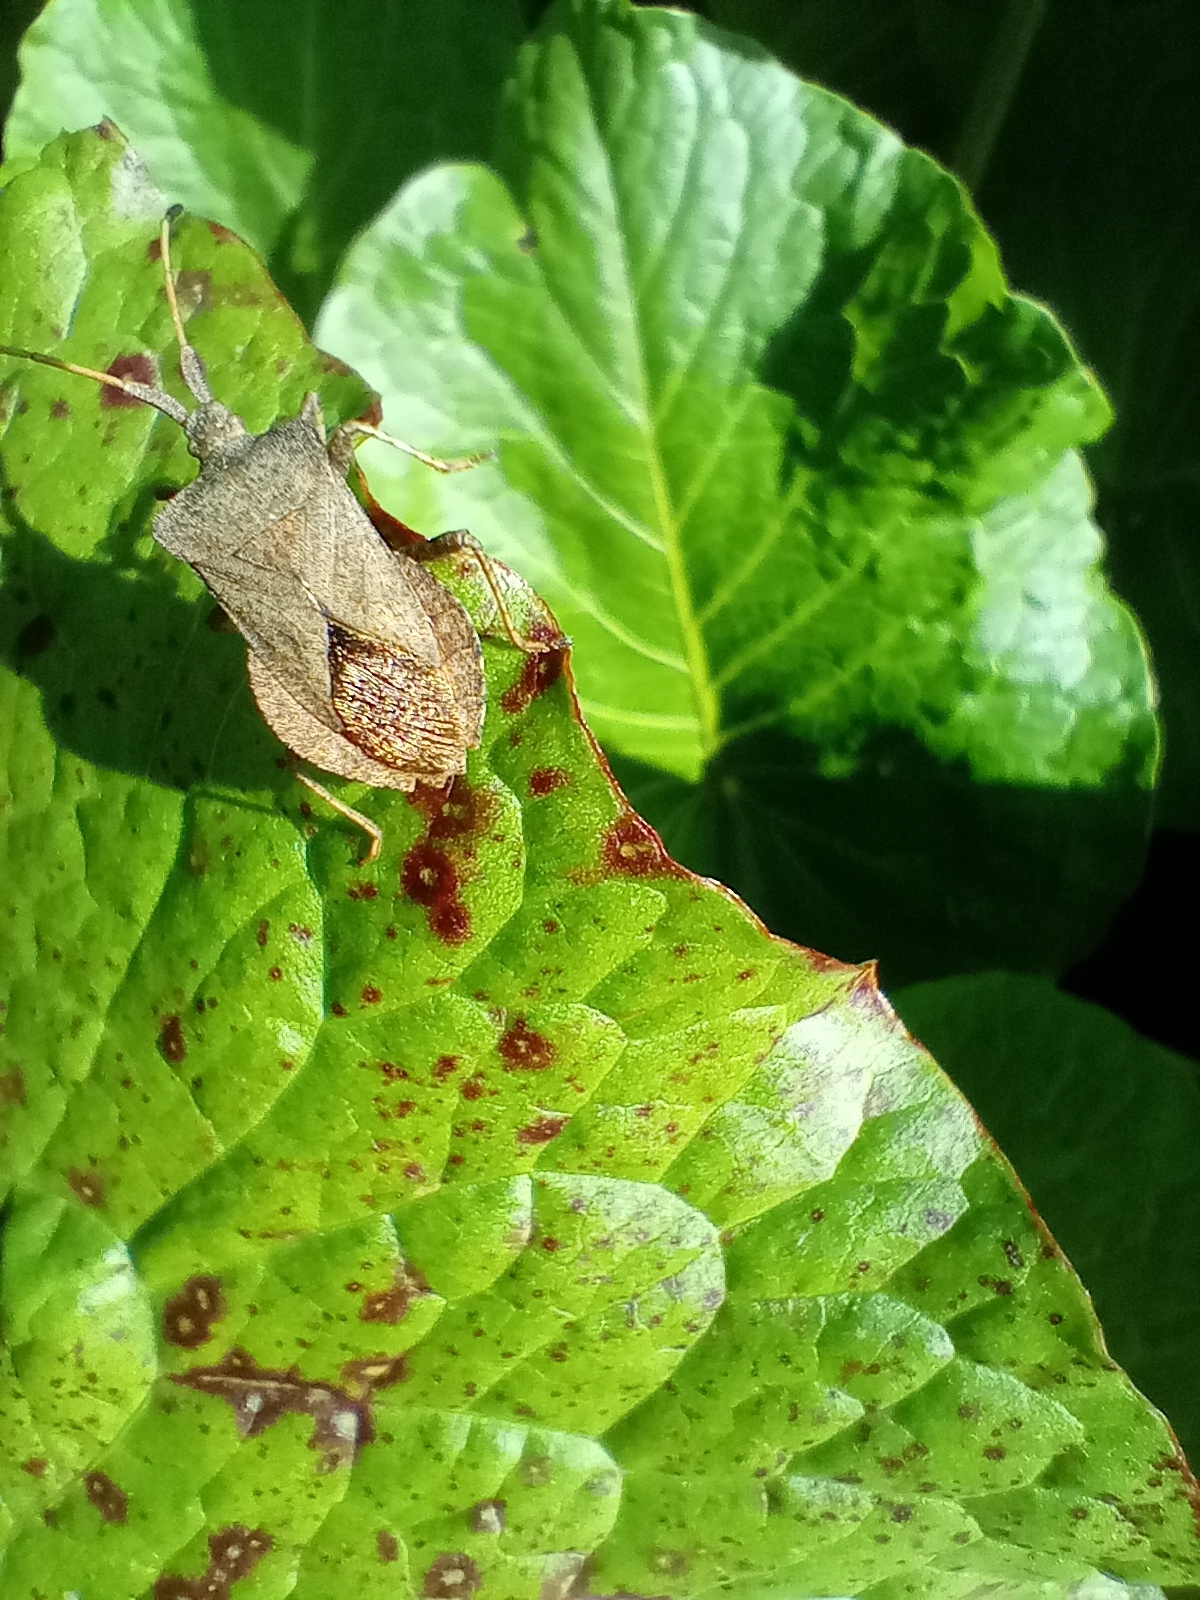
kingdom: Animalia
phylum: Arthropoda
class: Insecta
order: Hemiptera
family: Coreidae
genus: Coreus
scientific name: Coreus marginatus
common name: Dock bug
